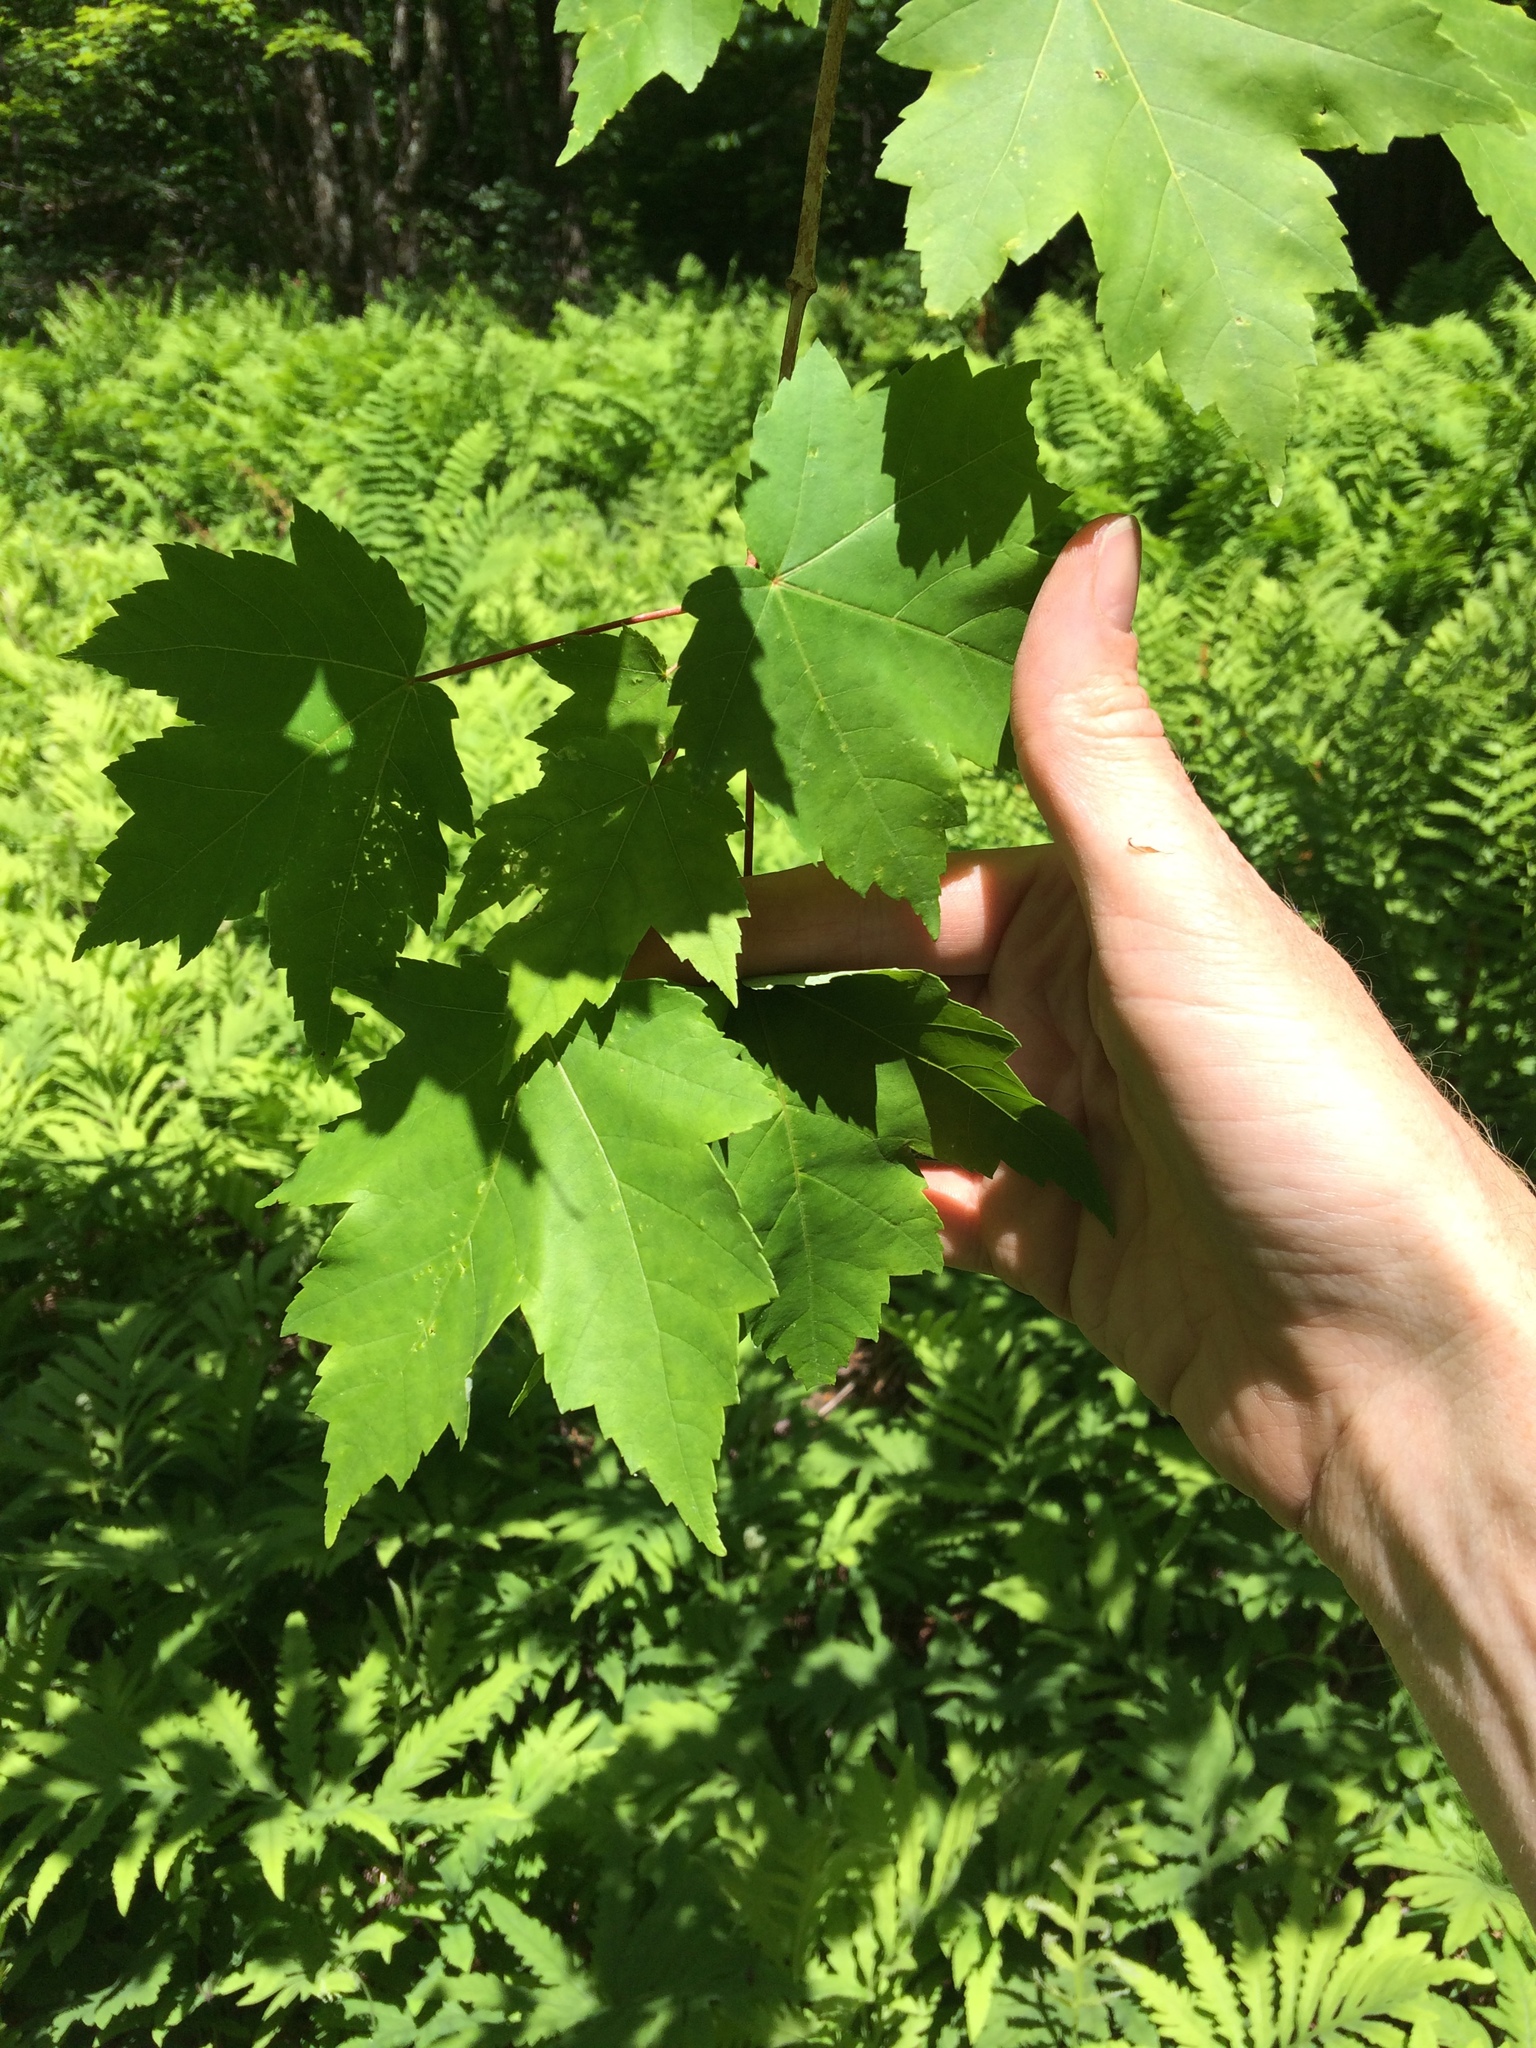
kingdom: Plantae
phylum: Tracheophyta
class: Magnoliopsida
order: Sapindales
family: Sapindaceae
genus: Acer
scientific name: Acer rubrum
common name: Red maple
